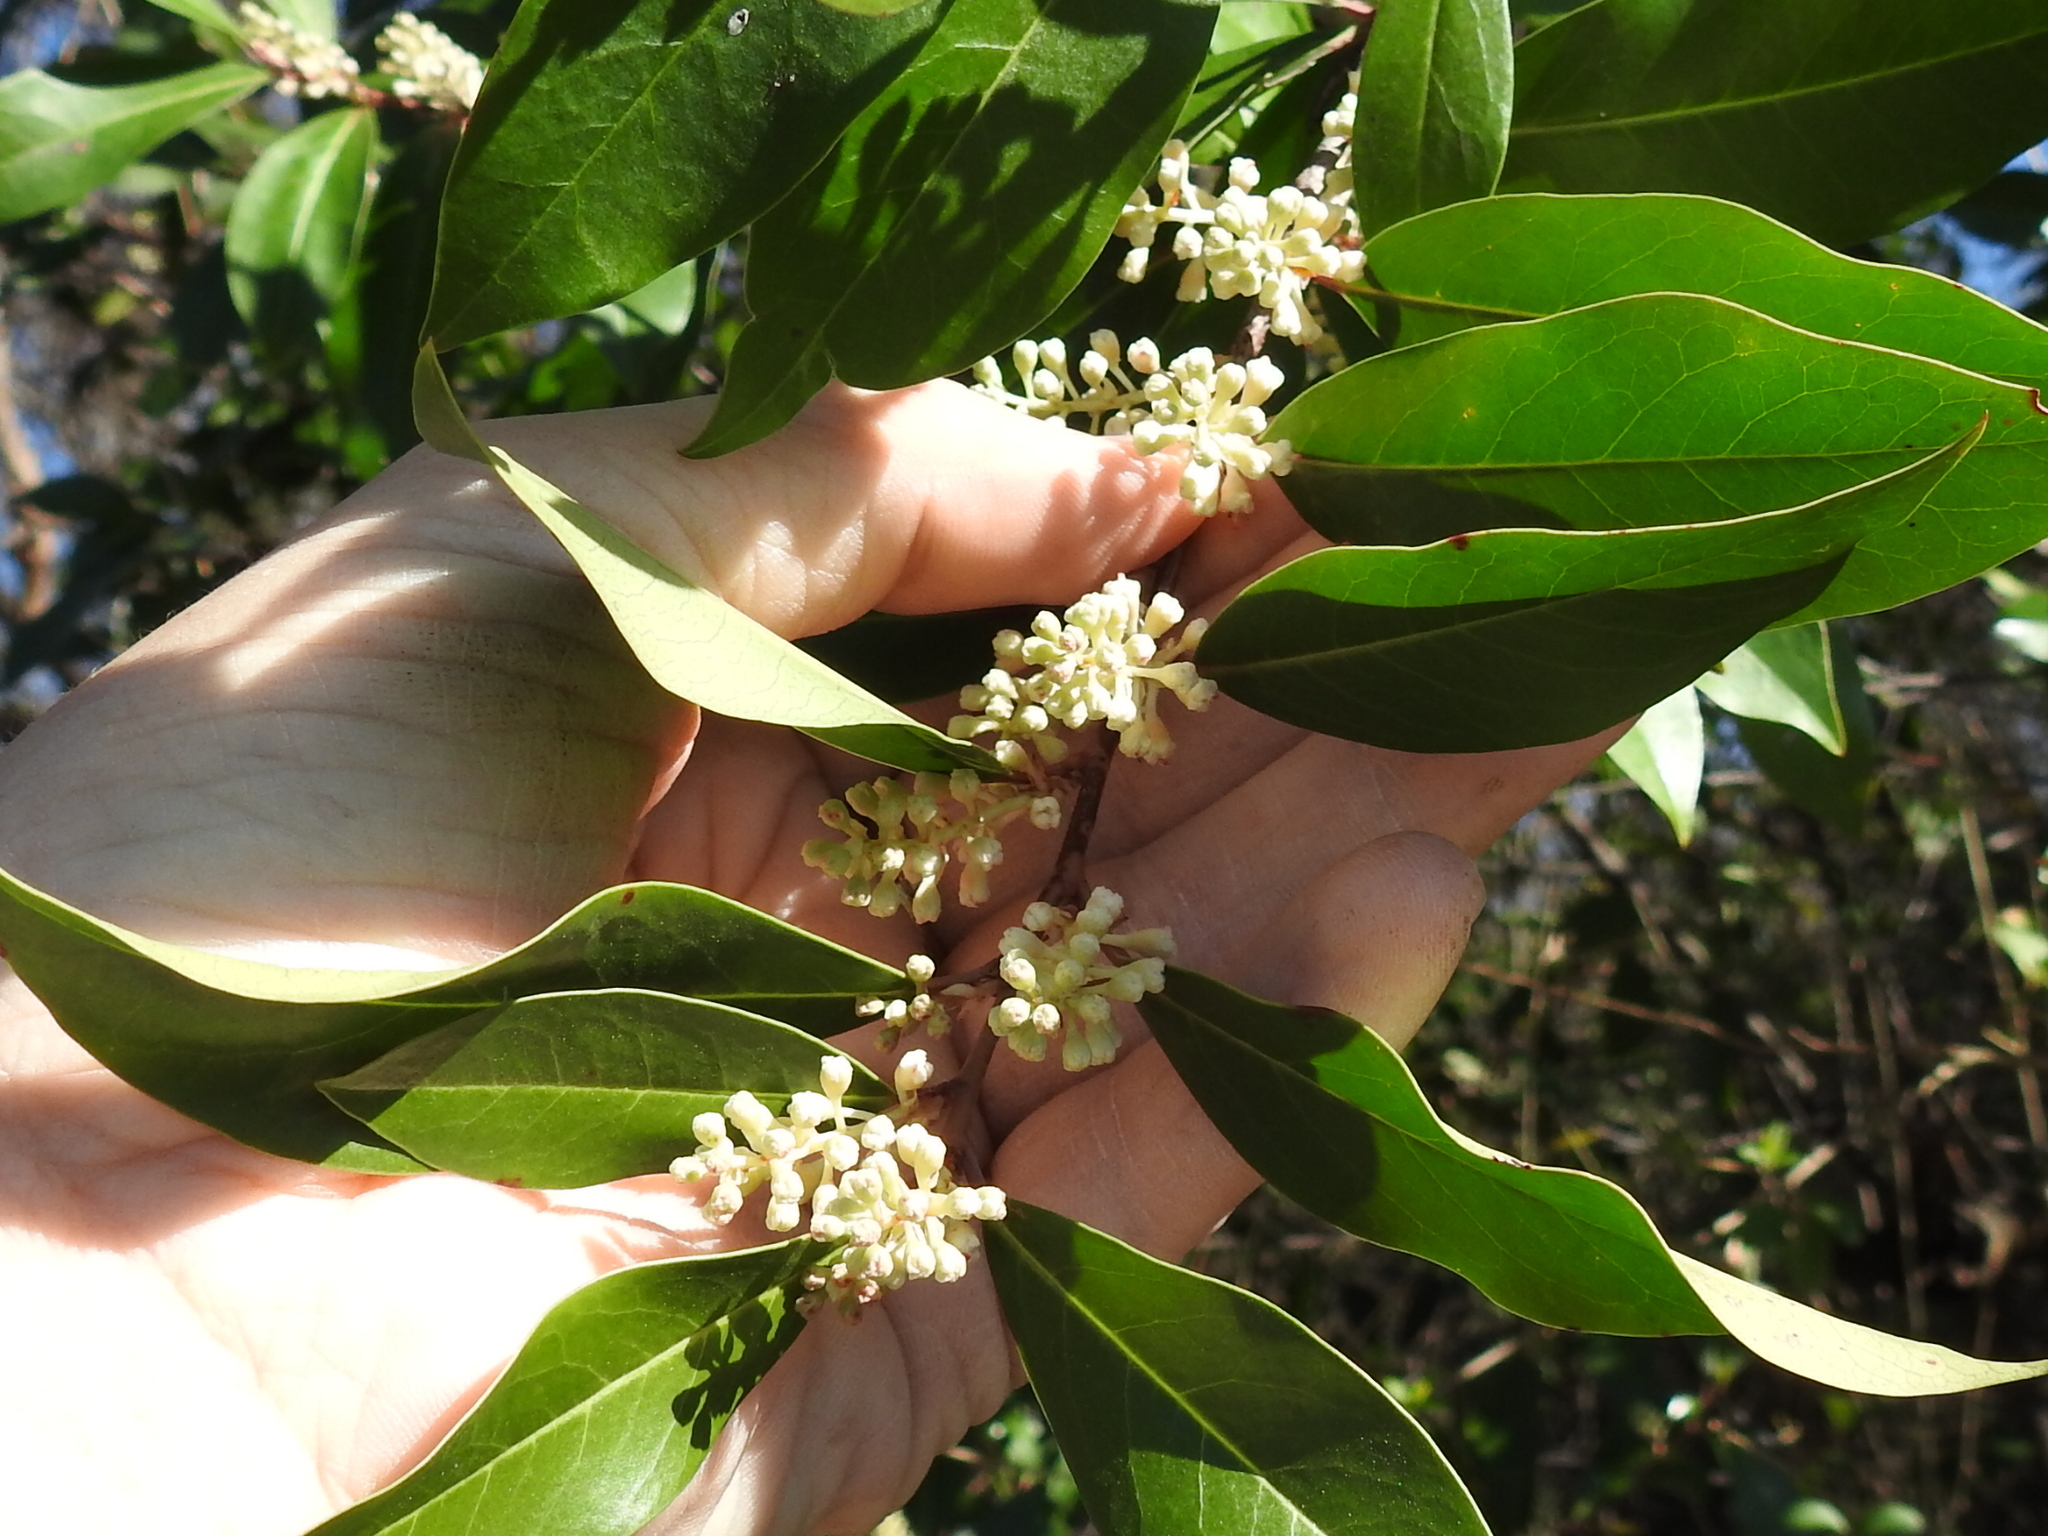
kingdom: Plantae
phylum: Tracheophyta
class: Magnoliopsida
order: Rosales
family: Rosaceae
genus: Prunus
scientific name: Prunus caroliniana
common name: Carolina laurel cherry
